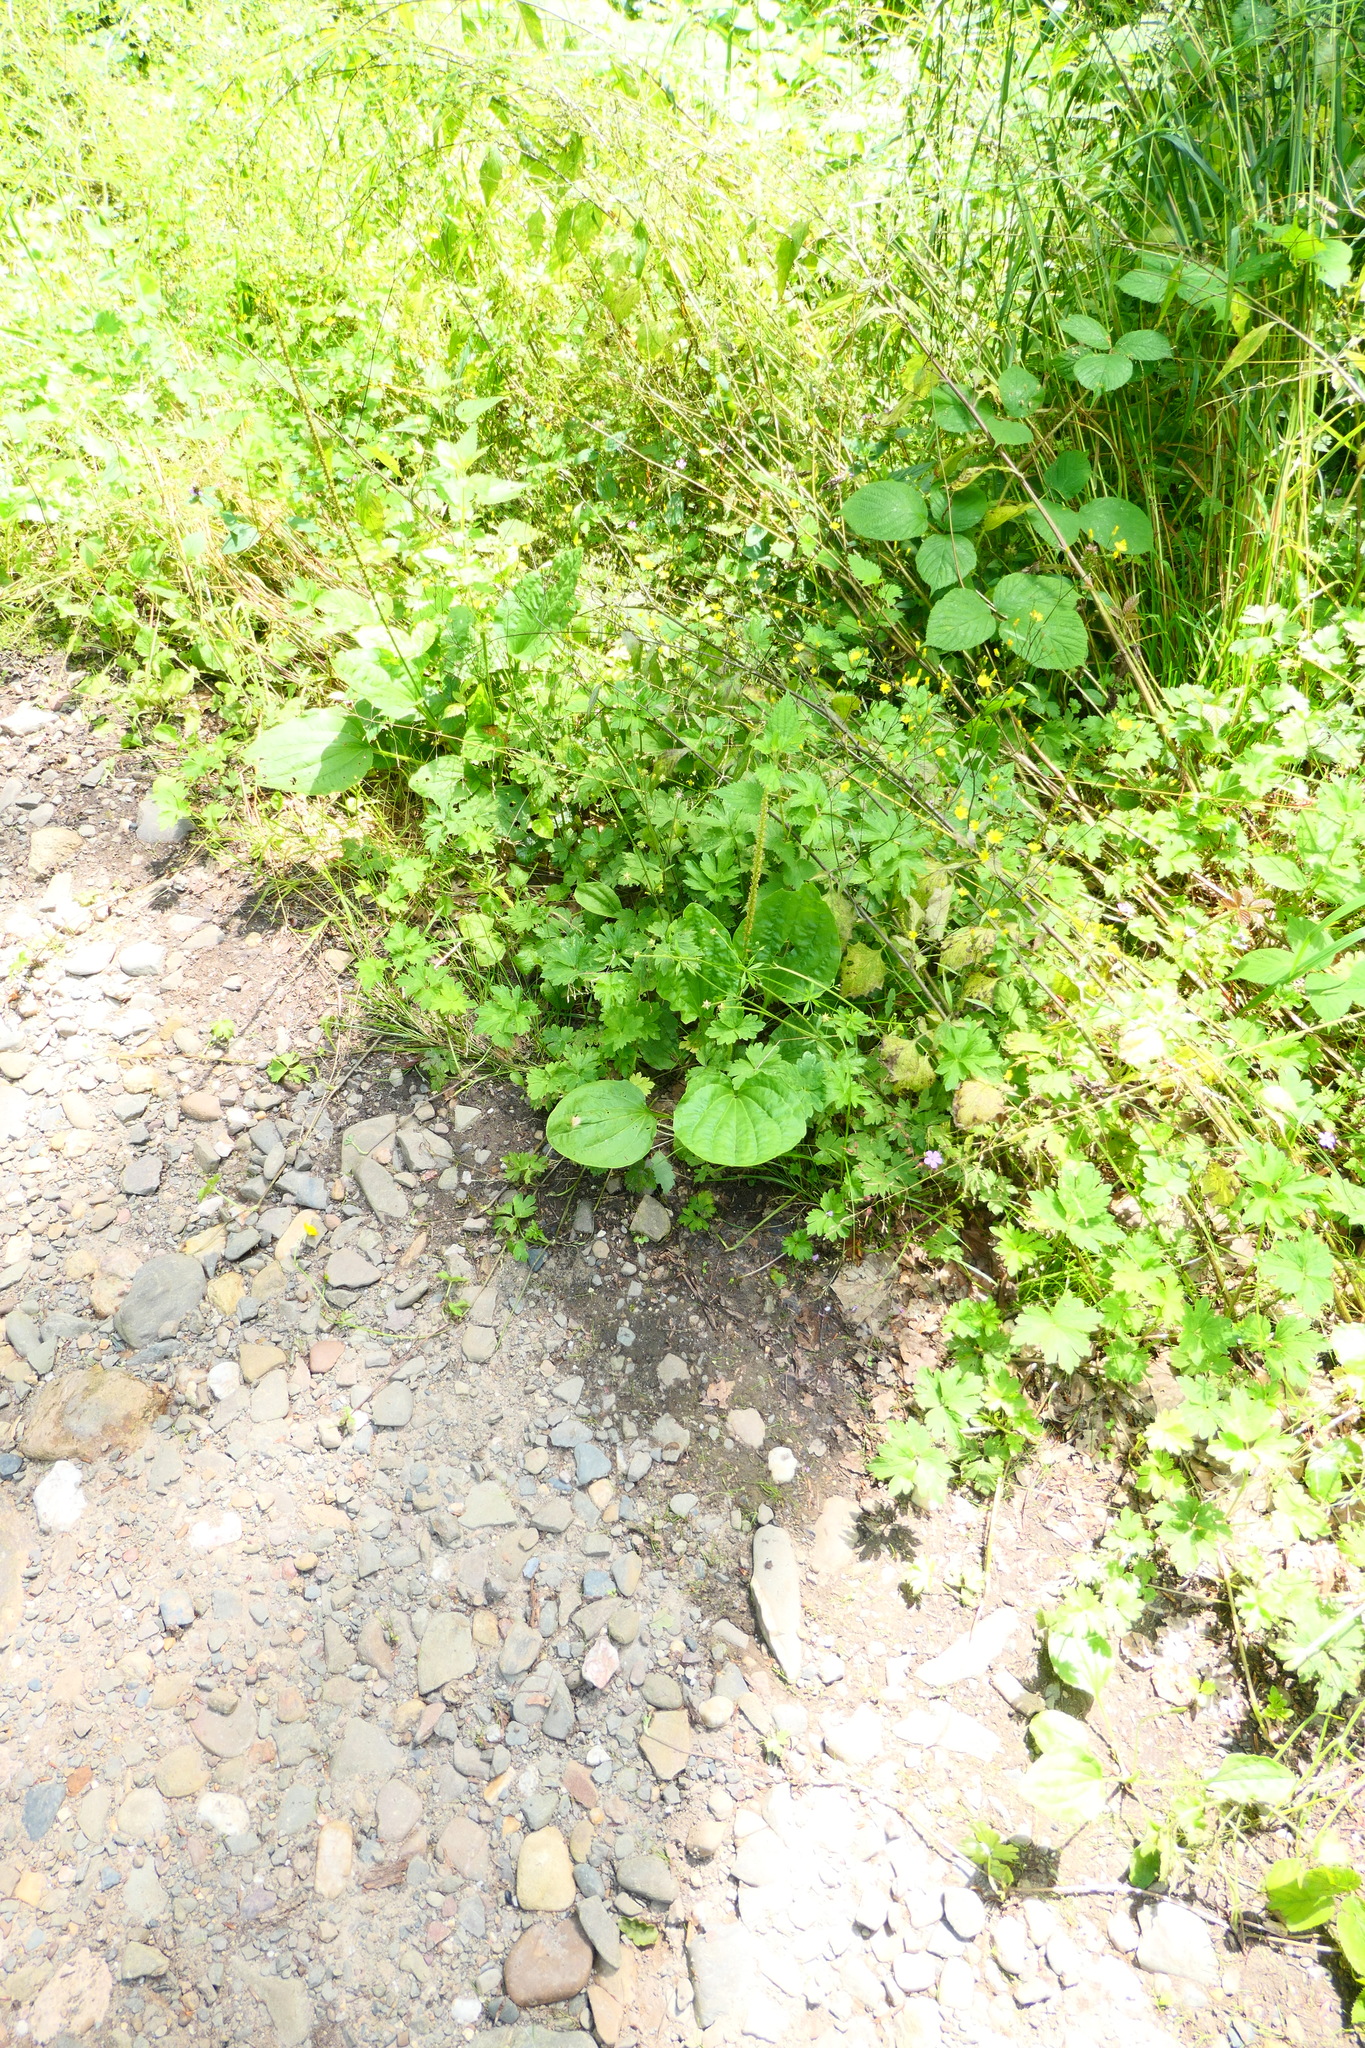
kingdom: Plantae
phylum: Tracheophyta
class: Magnoliopsida
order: Lamiales
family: Plantaginaceae
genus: Plantago
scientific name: Plantago major
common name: Common plantain
